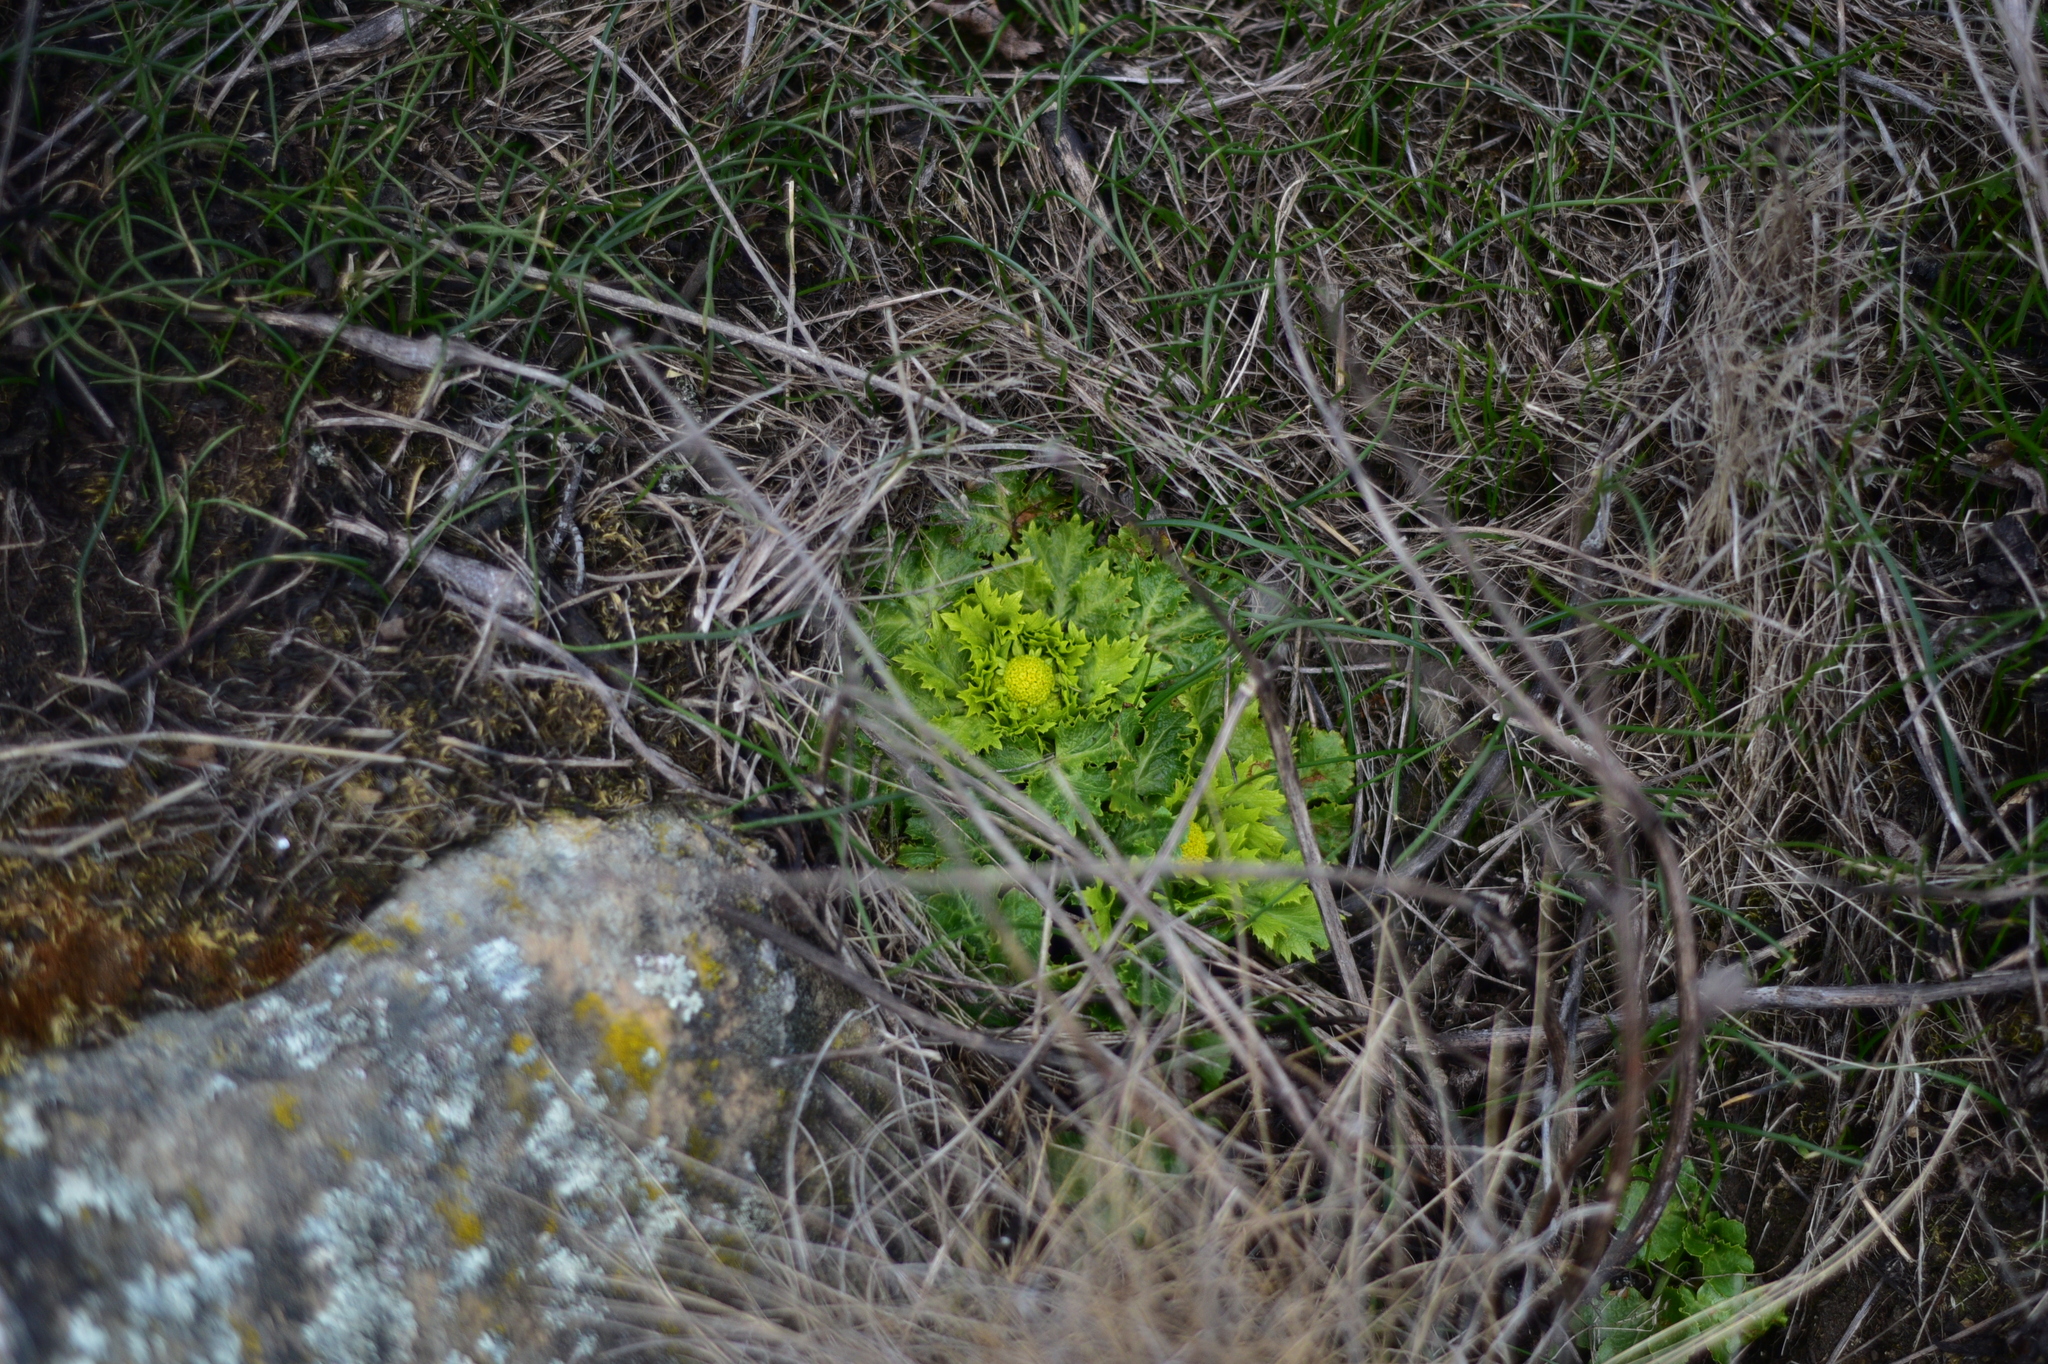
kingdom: Plantae
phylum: Tracheophyta
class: Magnoliopsida
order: Apiales
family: Apiaceae
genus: Sanicula
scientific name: Sanicula arctopoides
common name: Footsteps-of-spring
